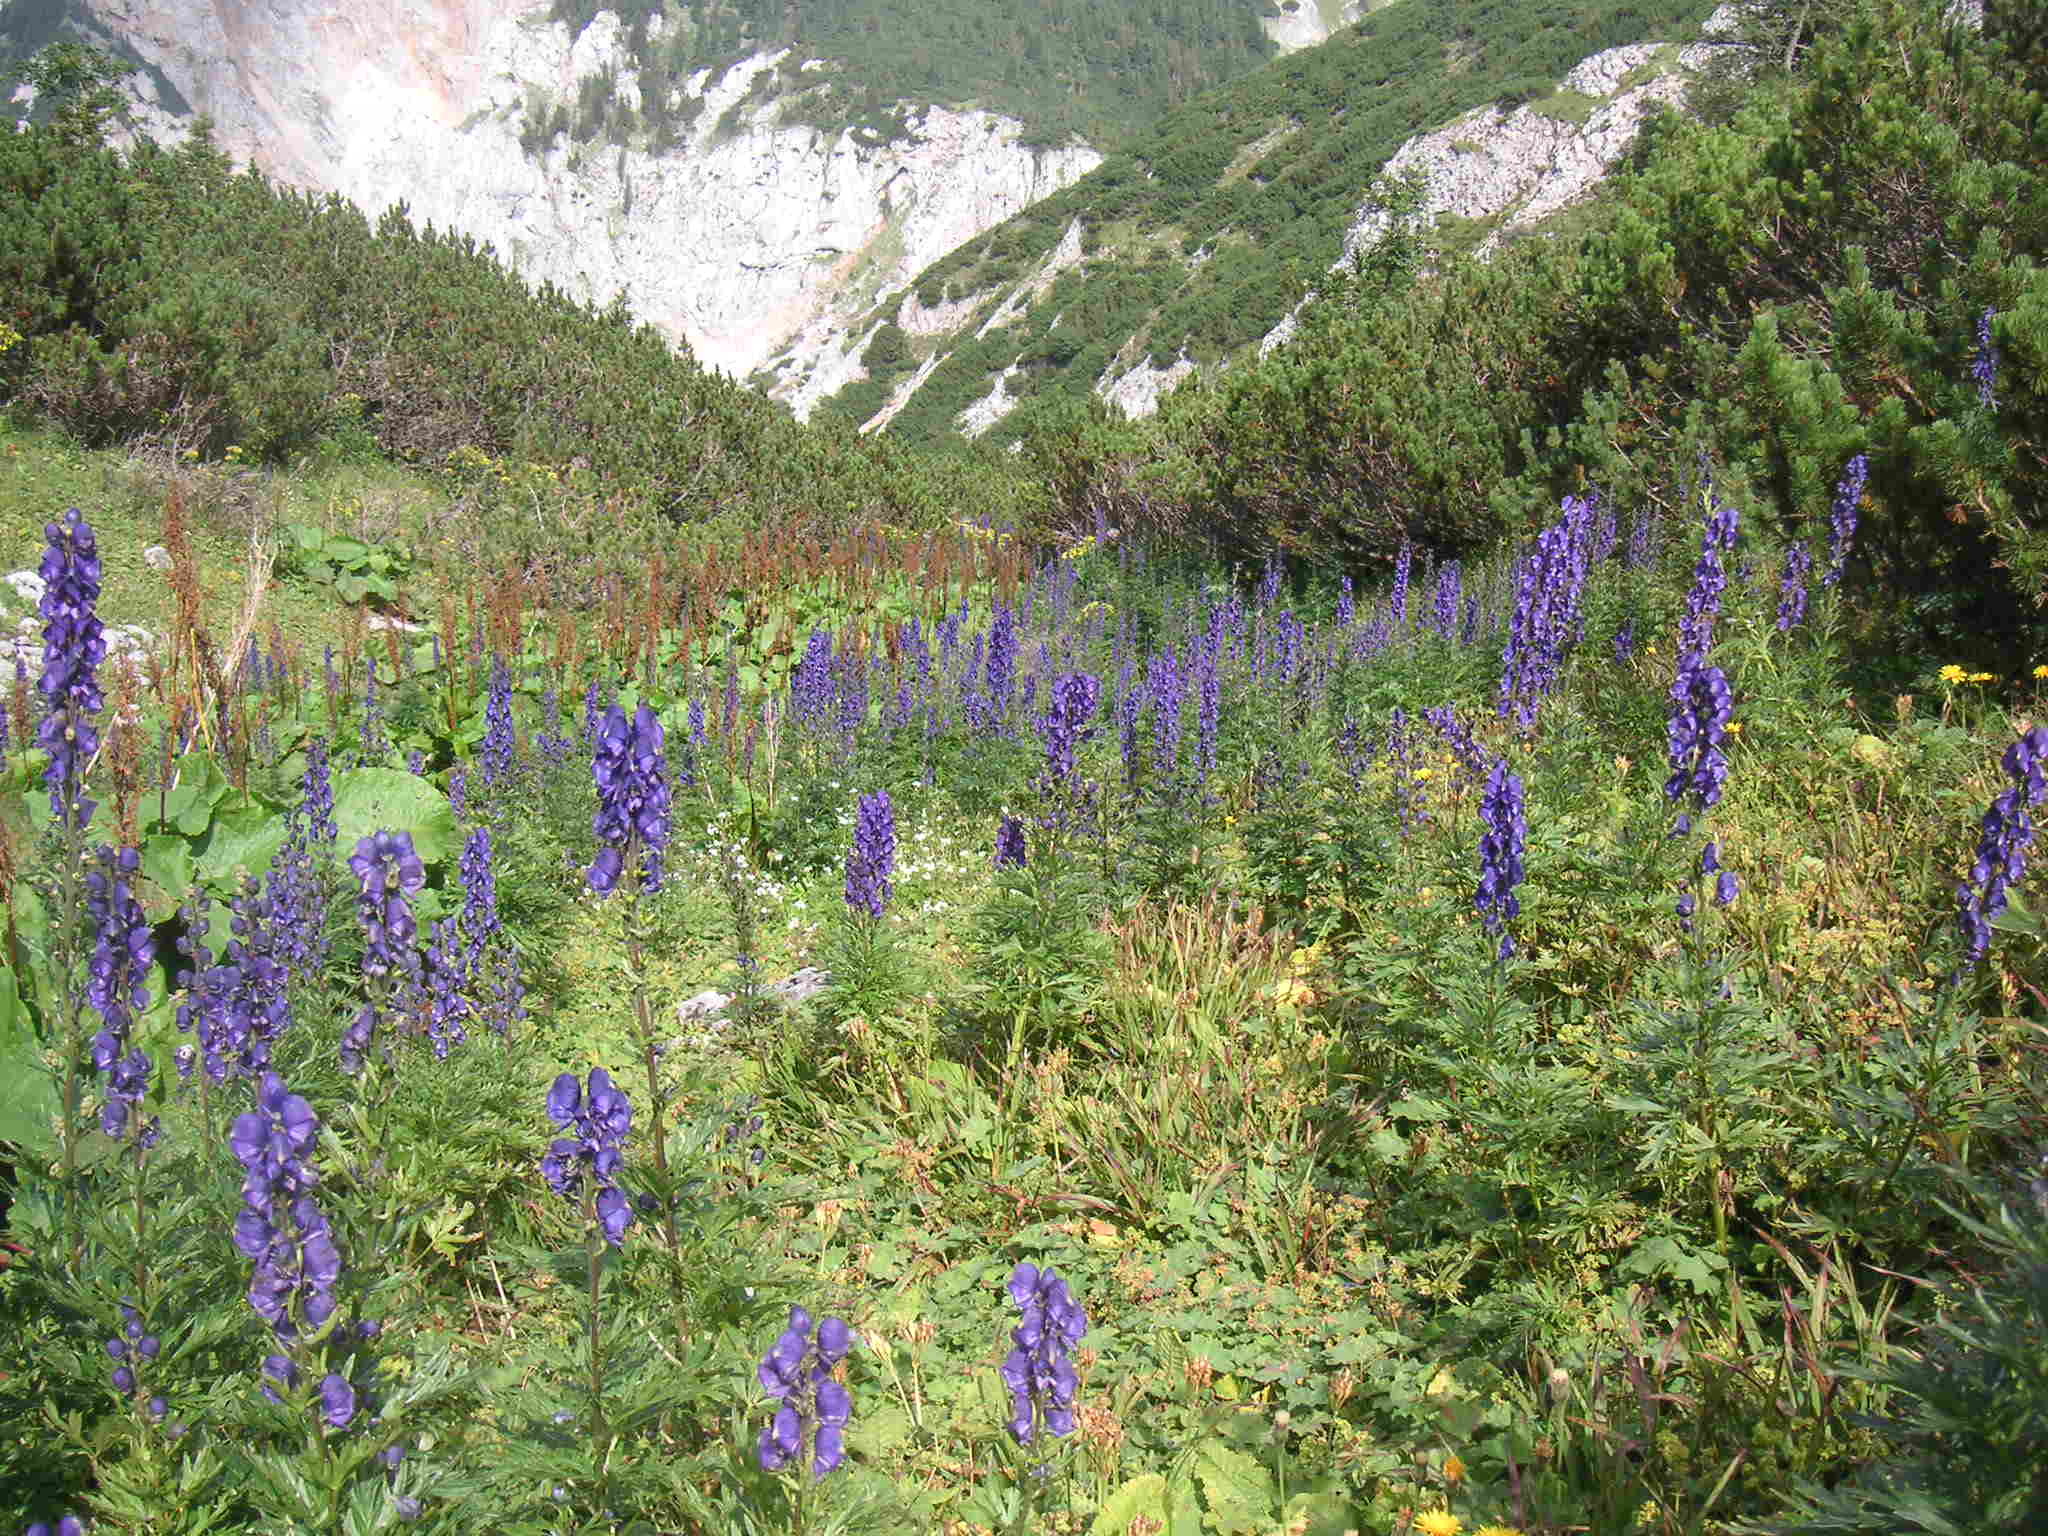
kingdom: Plantae
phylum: Tracheophyta
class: Magnoliopsida
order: Ranunculales
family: Ranunculaceae
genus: Aconitum
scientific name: Aconitum napellus
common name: Garden monkshood
